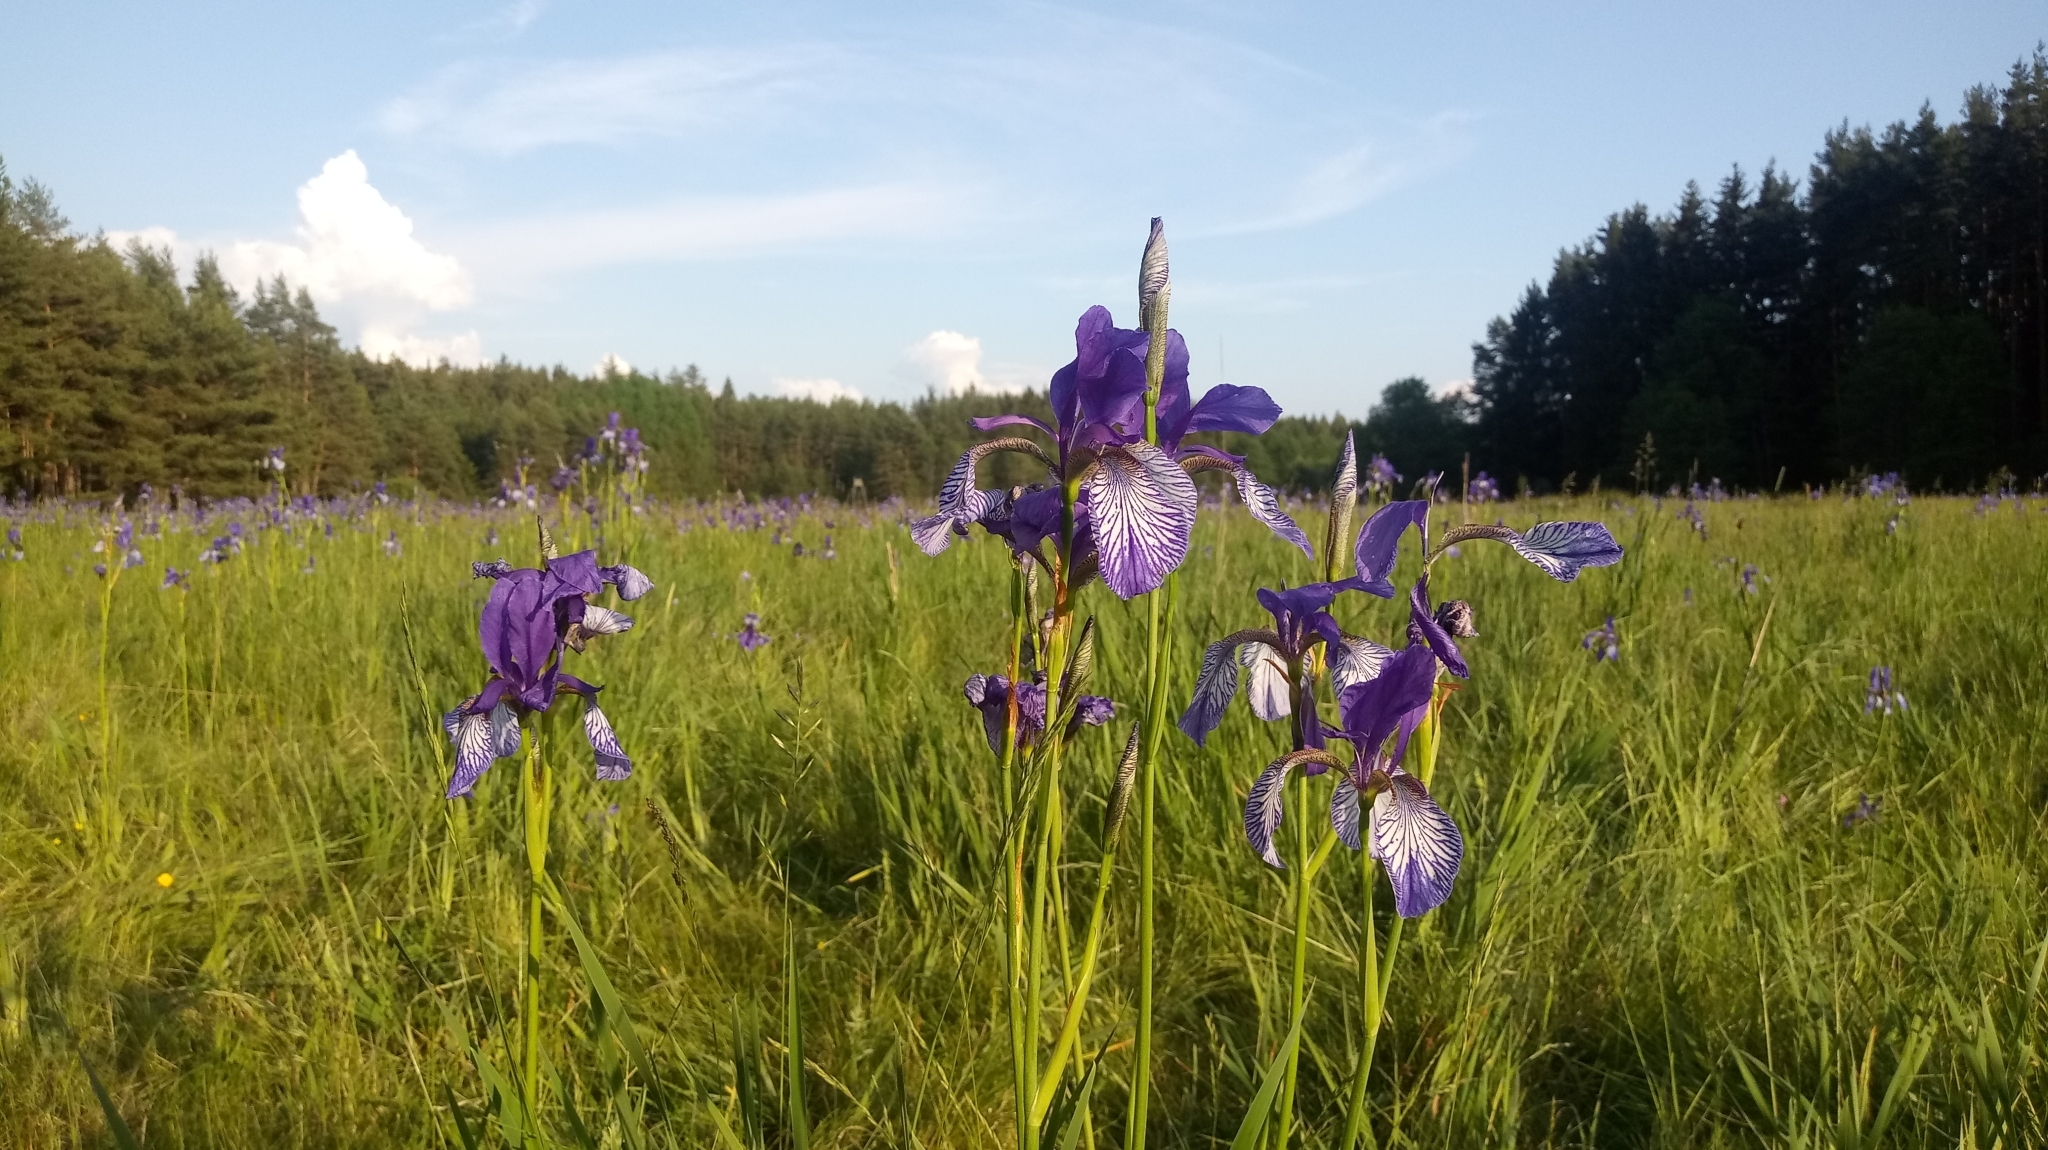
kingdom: Plantae
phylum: Tracheophyta
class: Liliopsida
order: Asparagales
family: Iridaceae
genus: Iris
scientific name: Iris sibirica
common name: Siberian iris
